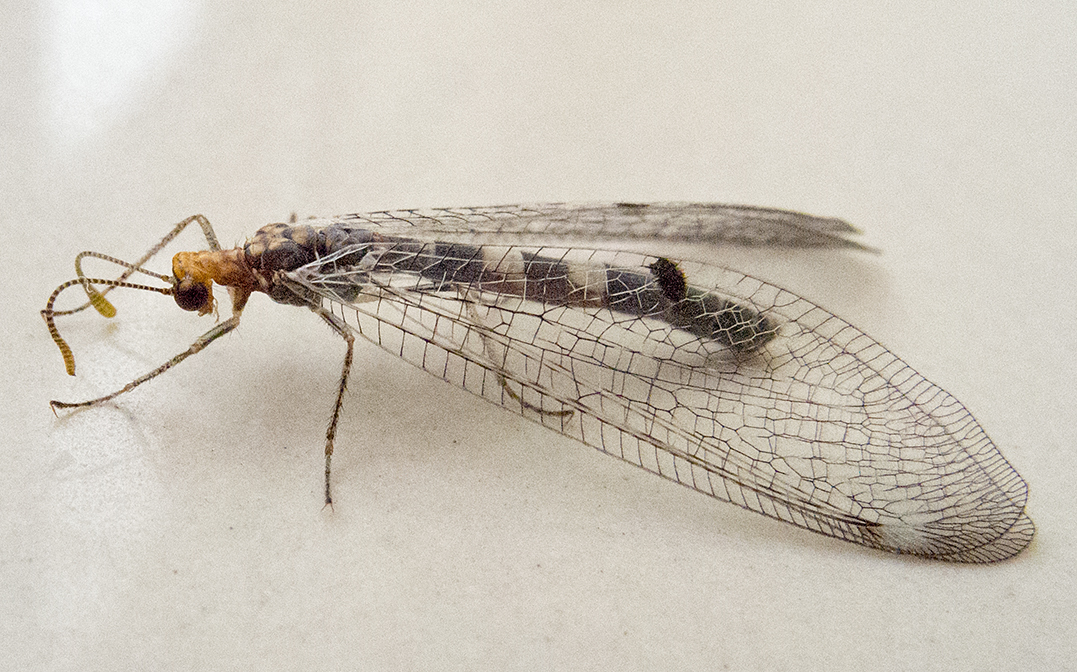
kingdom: Animalia
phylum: Arthropoda
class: Insecta
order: Neuroptera
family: Myrmeleontidae
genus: Megistopus
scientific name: Megistopus flavicornis
